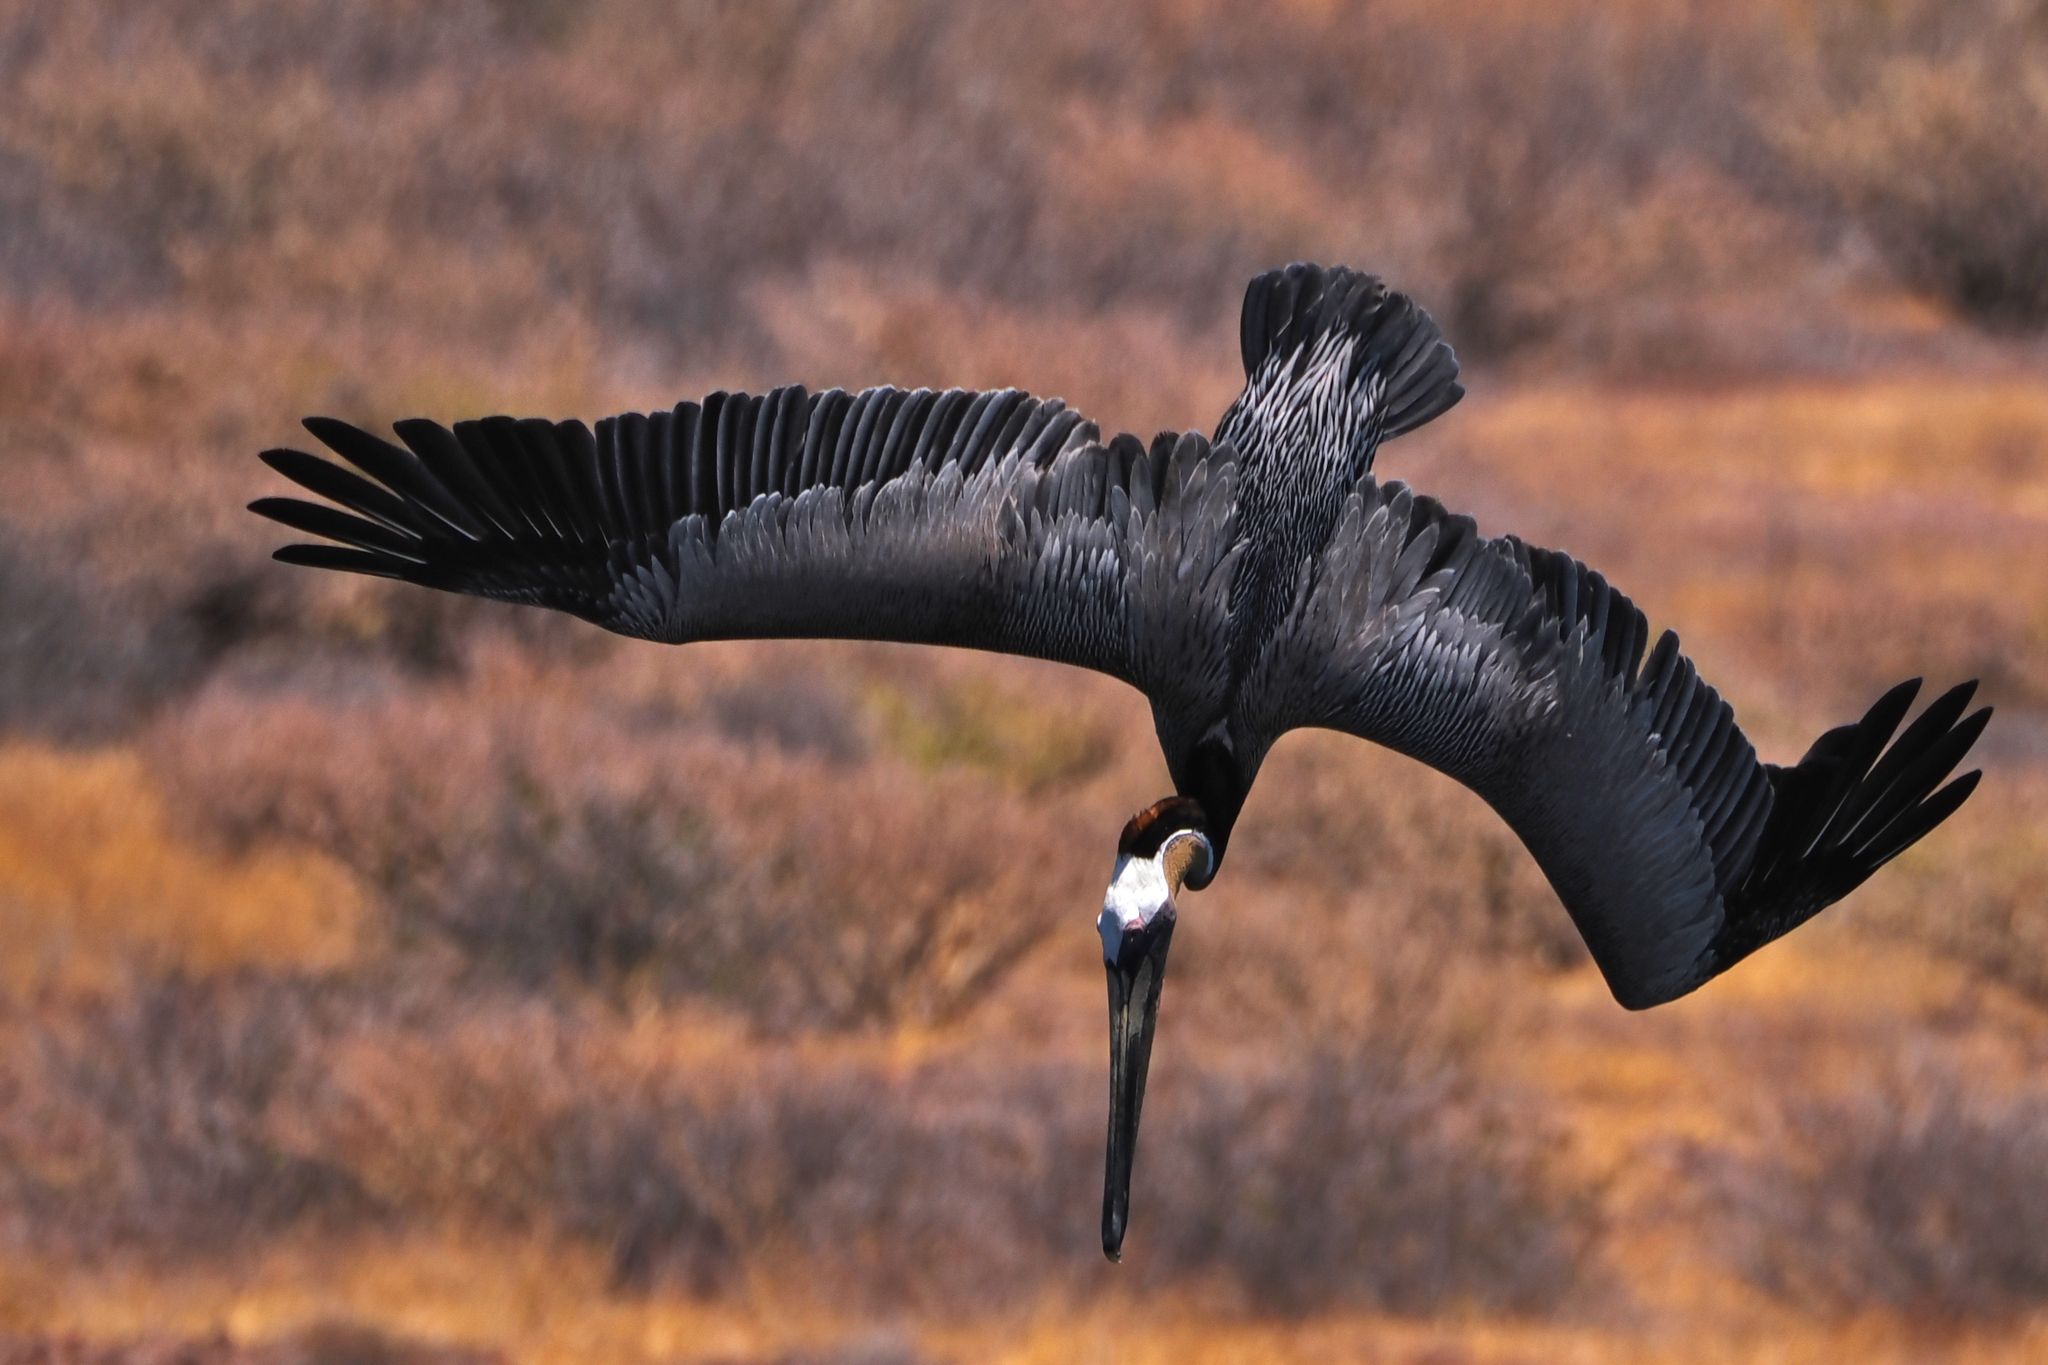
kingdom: Animalia
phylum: Chordata
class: Aves
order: Pelecaniformes
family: Pelecanidae
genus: Pelecanus
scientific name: Pelecanus occidentalis
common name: Brown pelican
